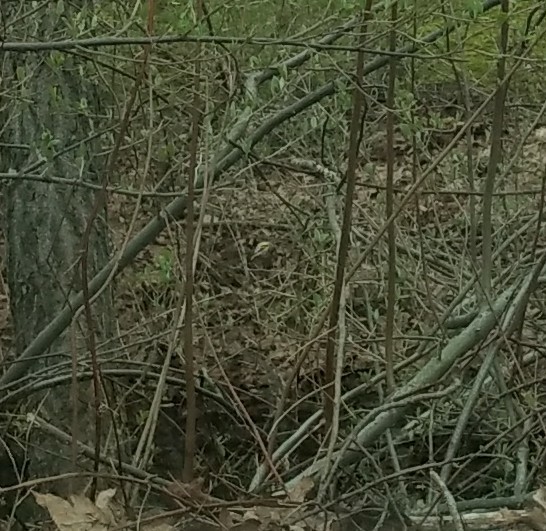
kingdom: Animalia
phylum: Chordata
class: Aves
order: Passeriformes
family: Fringillidae
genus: Spinus
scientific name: Spinus tristis
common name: American goldfinch
